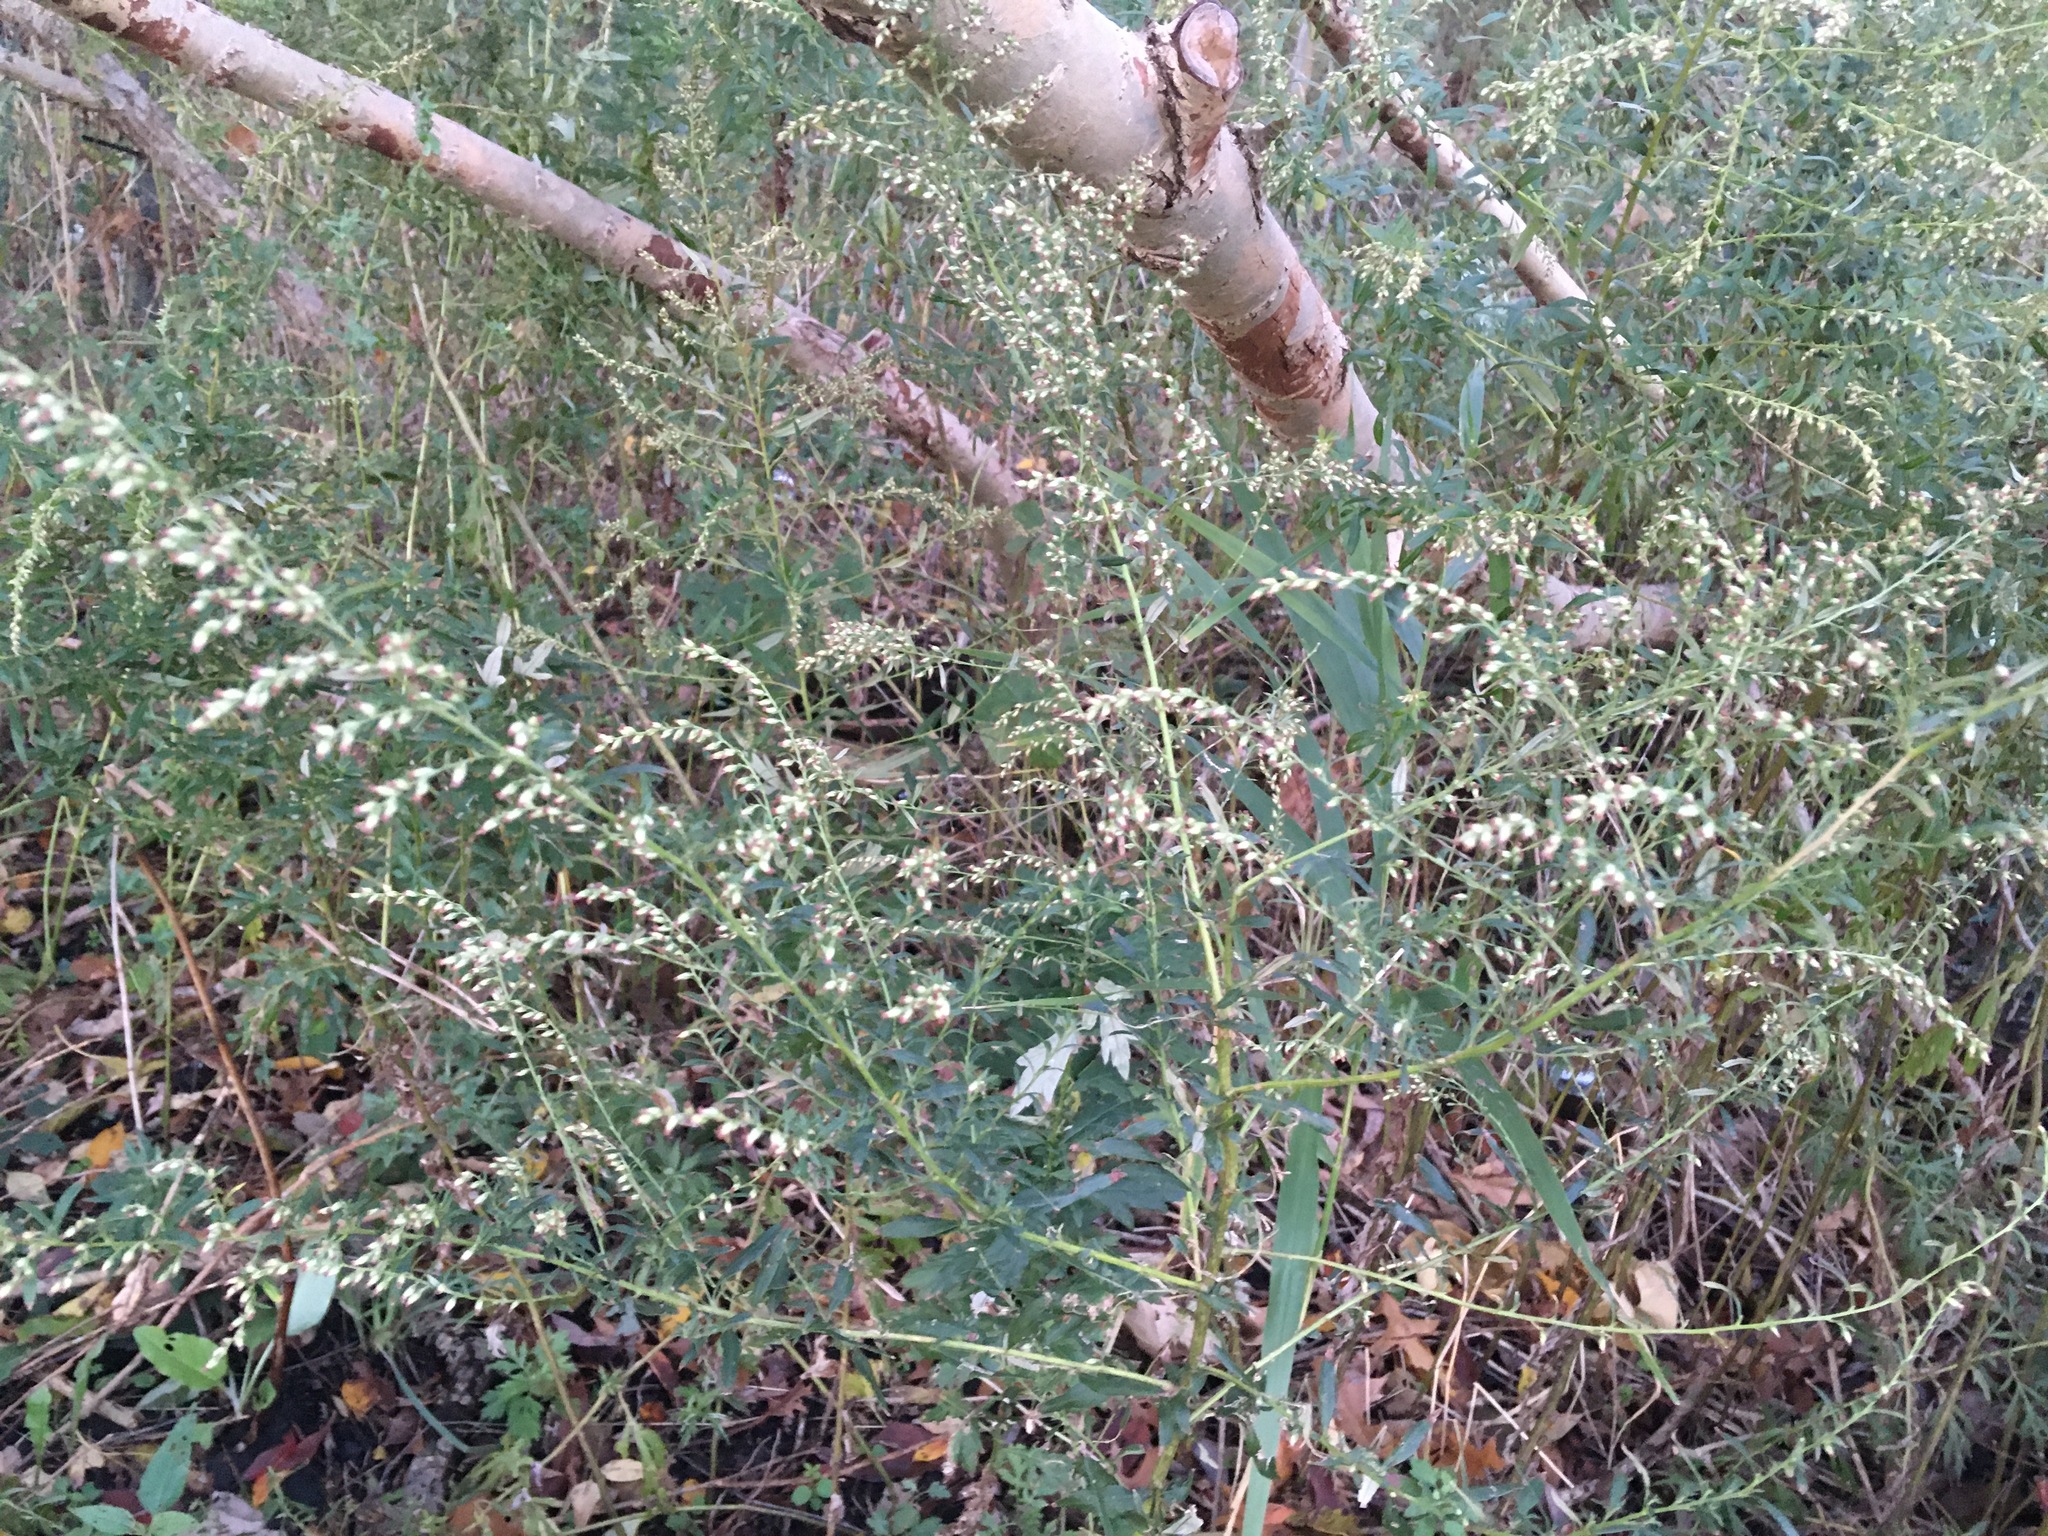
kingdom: Plantae
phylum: Tracheophyta
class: Magnoliopsida
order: Asterales
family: Asteraceae
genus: Artemisia
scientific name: Artemisia vulgaris
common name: Mugwort
